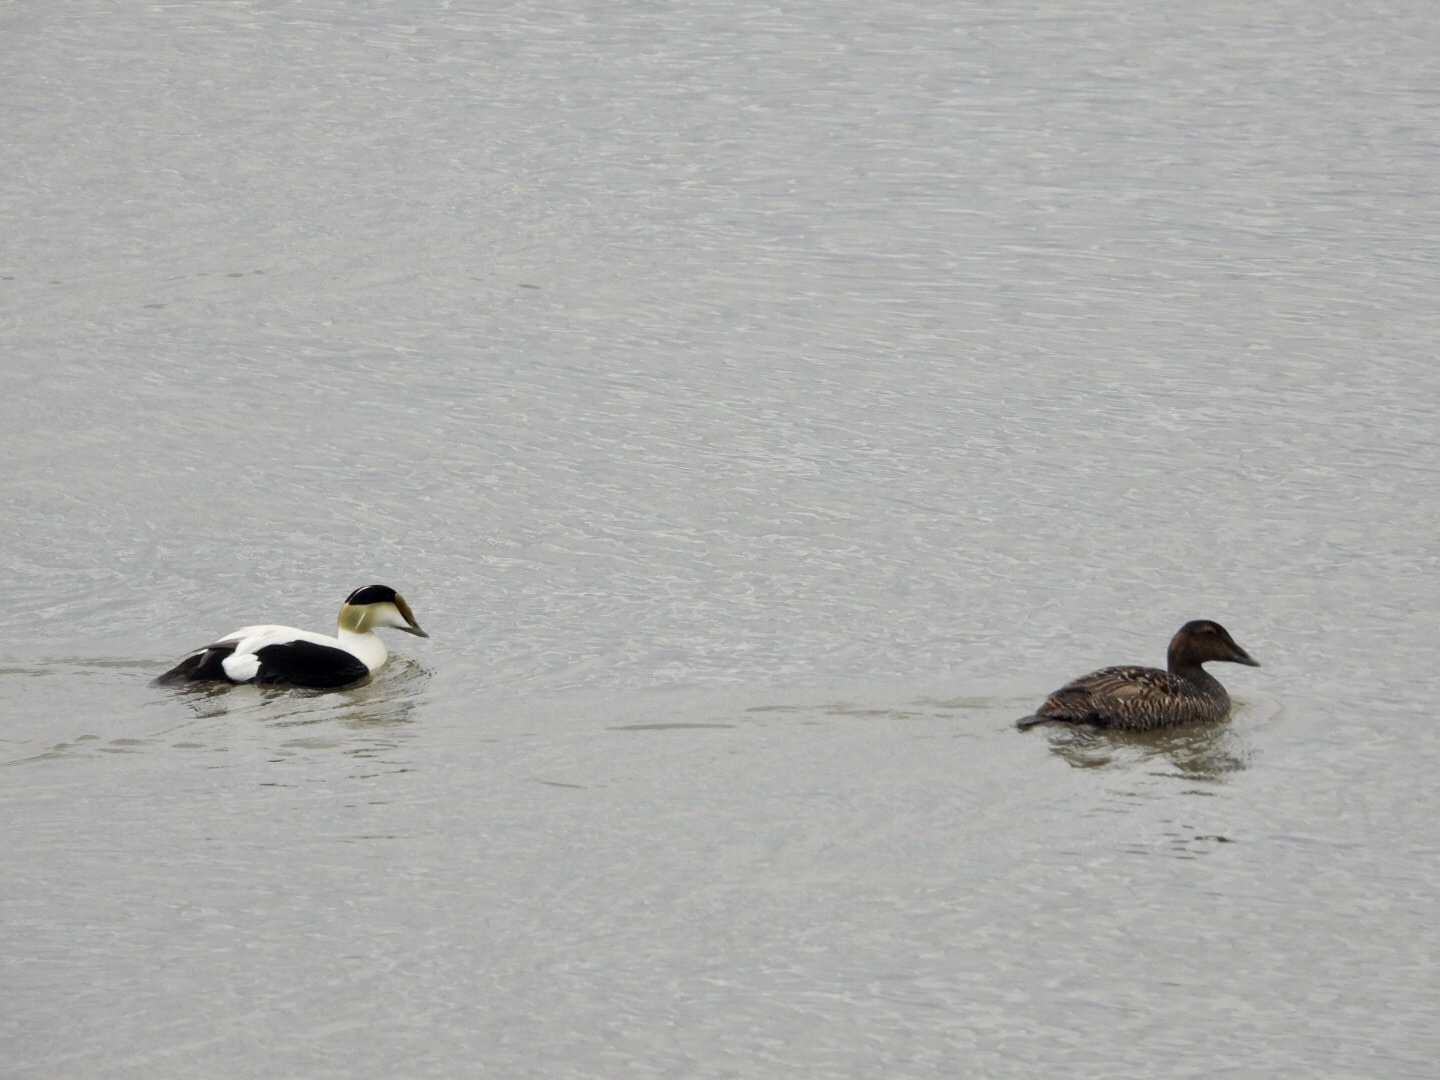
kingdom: Animalia
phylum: Chordata
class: Aves
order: Anseriformes
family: Anatidae
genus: Somateria
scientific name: Somateria mollissima
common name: Common eider
